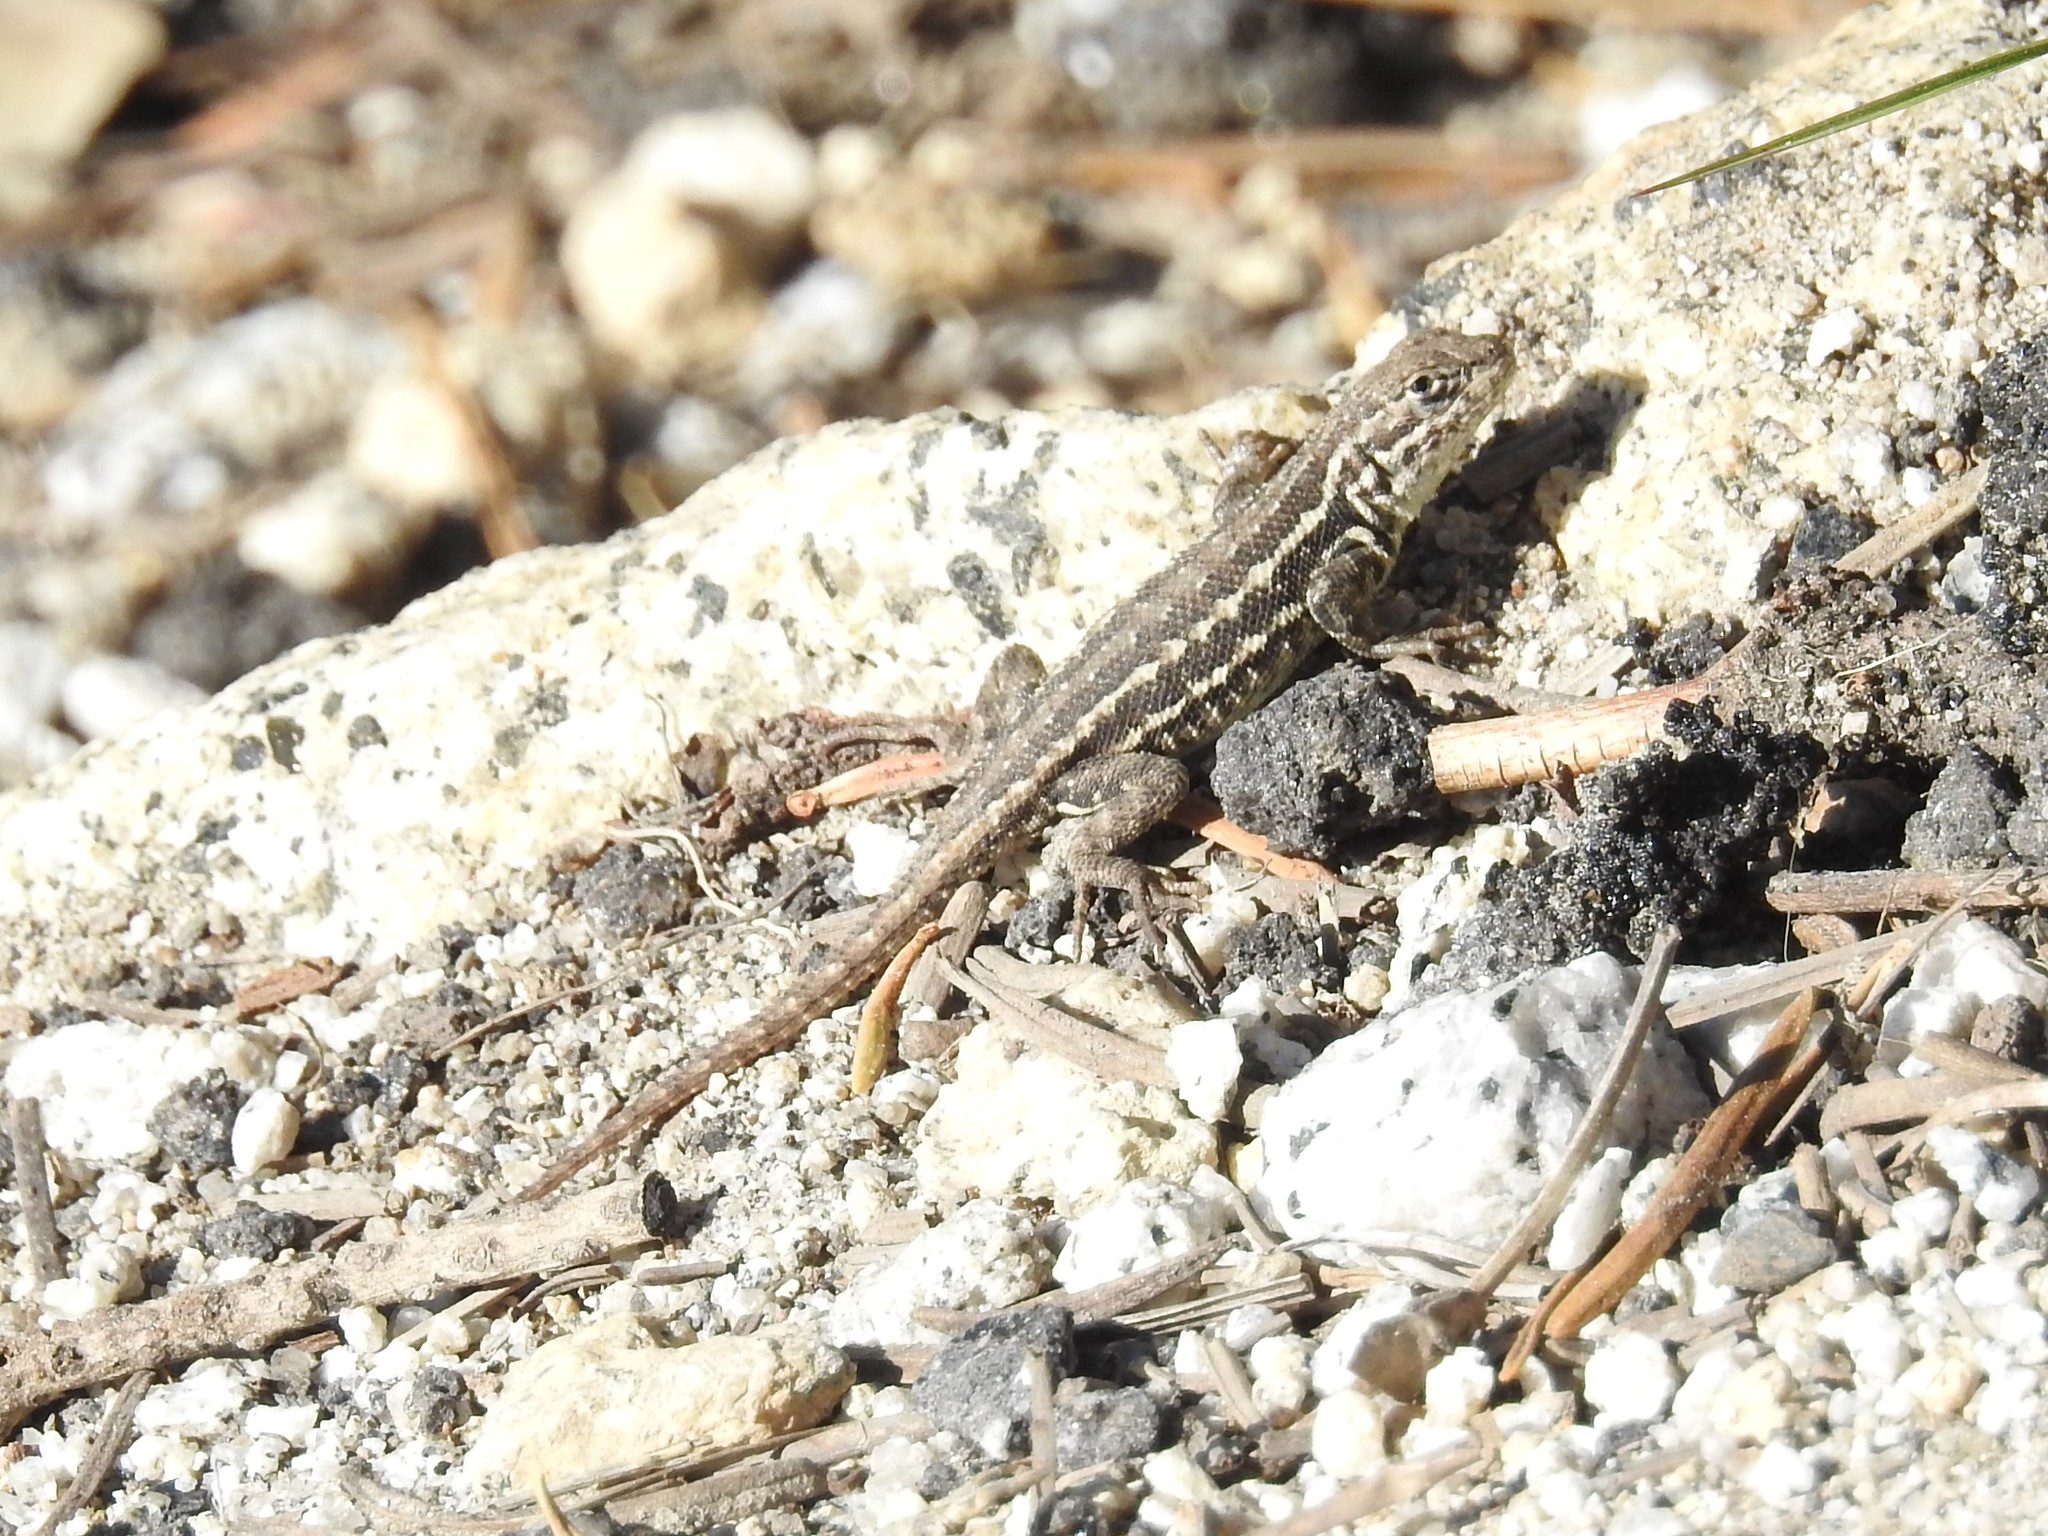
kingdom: Animalia
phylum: Chordata
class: Squamata
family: Phrynosomatidae
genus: Sceloporus
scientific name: Sceloporus graciosus
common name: Sagebrush lizard
